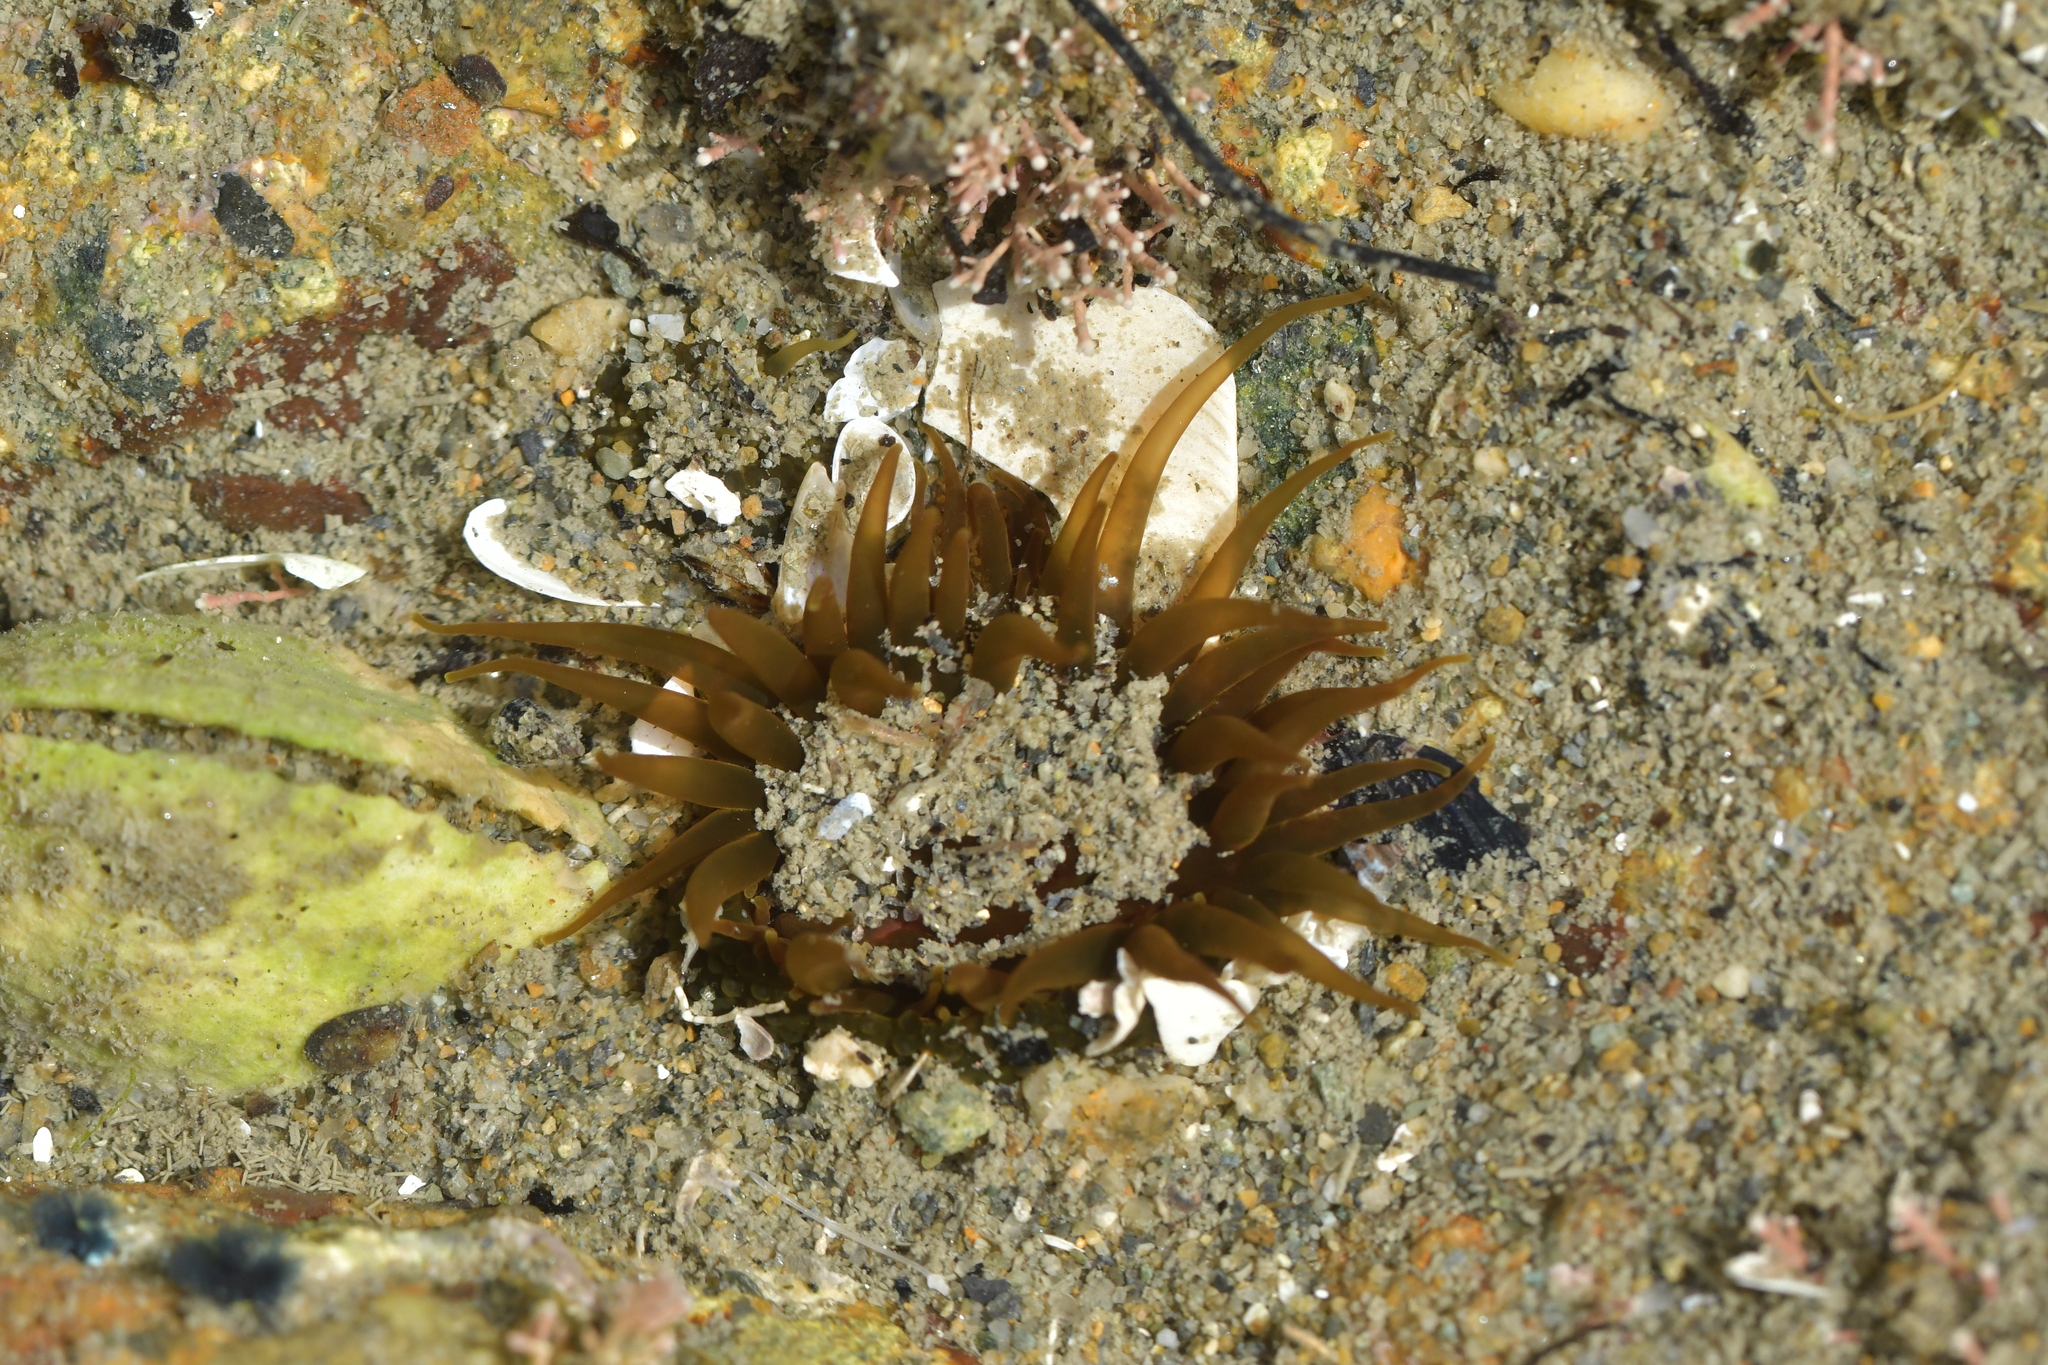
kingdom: Animalia
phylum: Cnidaria
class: Anthozoa
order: Actiniaria
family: Actiniidae
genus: Isactinia
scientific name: Isactinia olivacea
